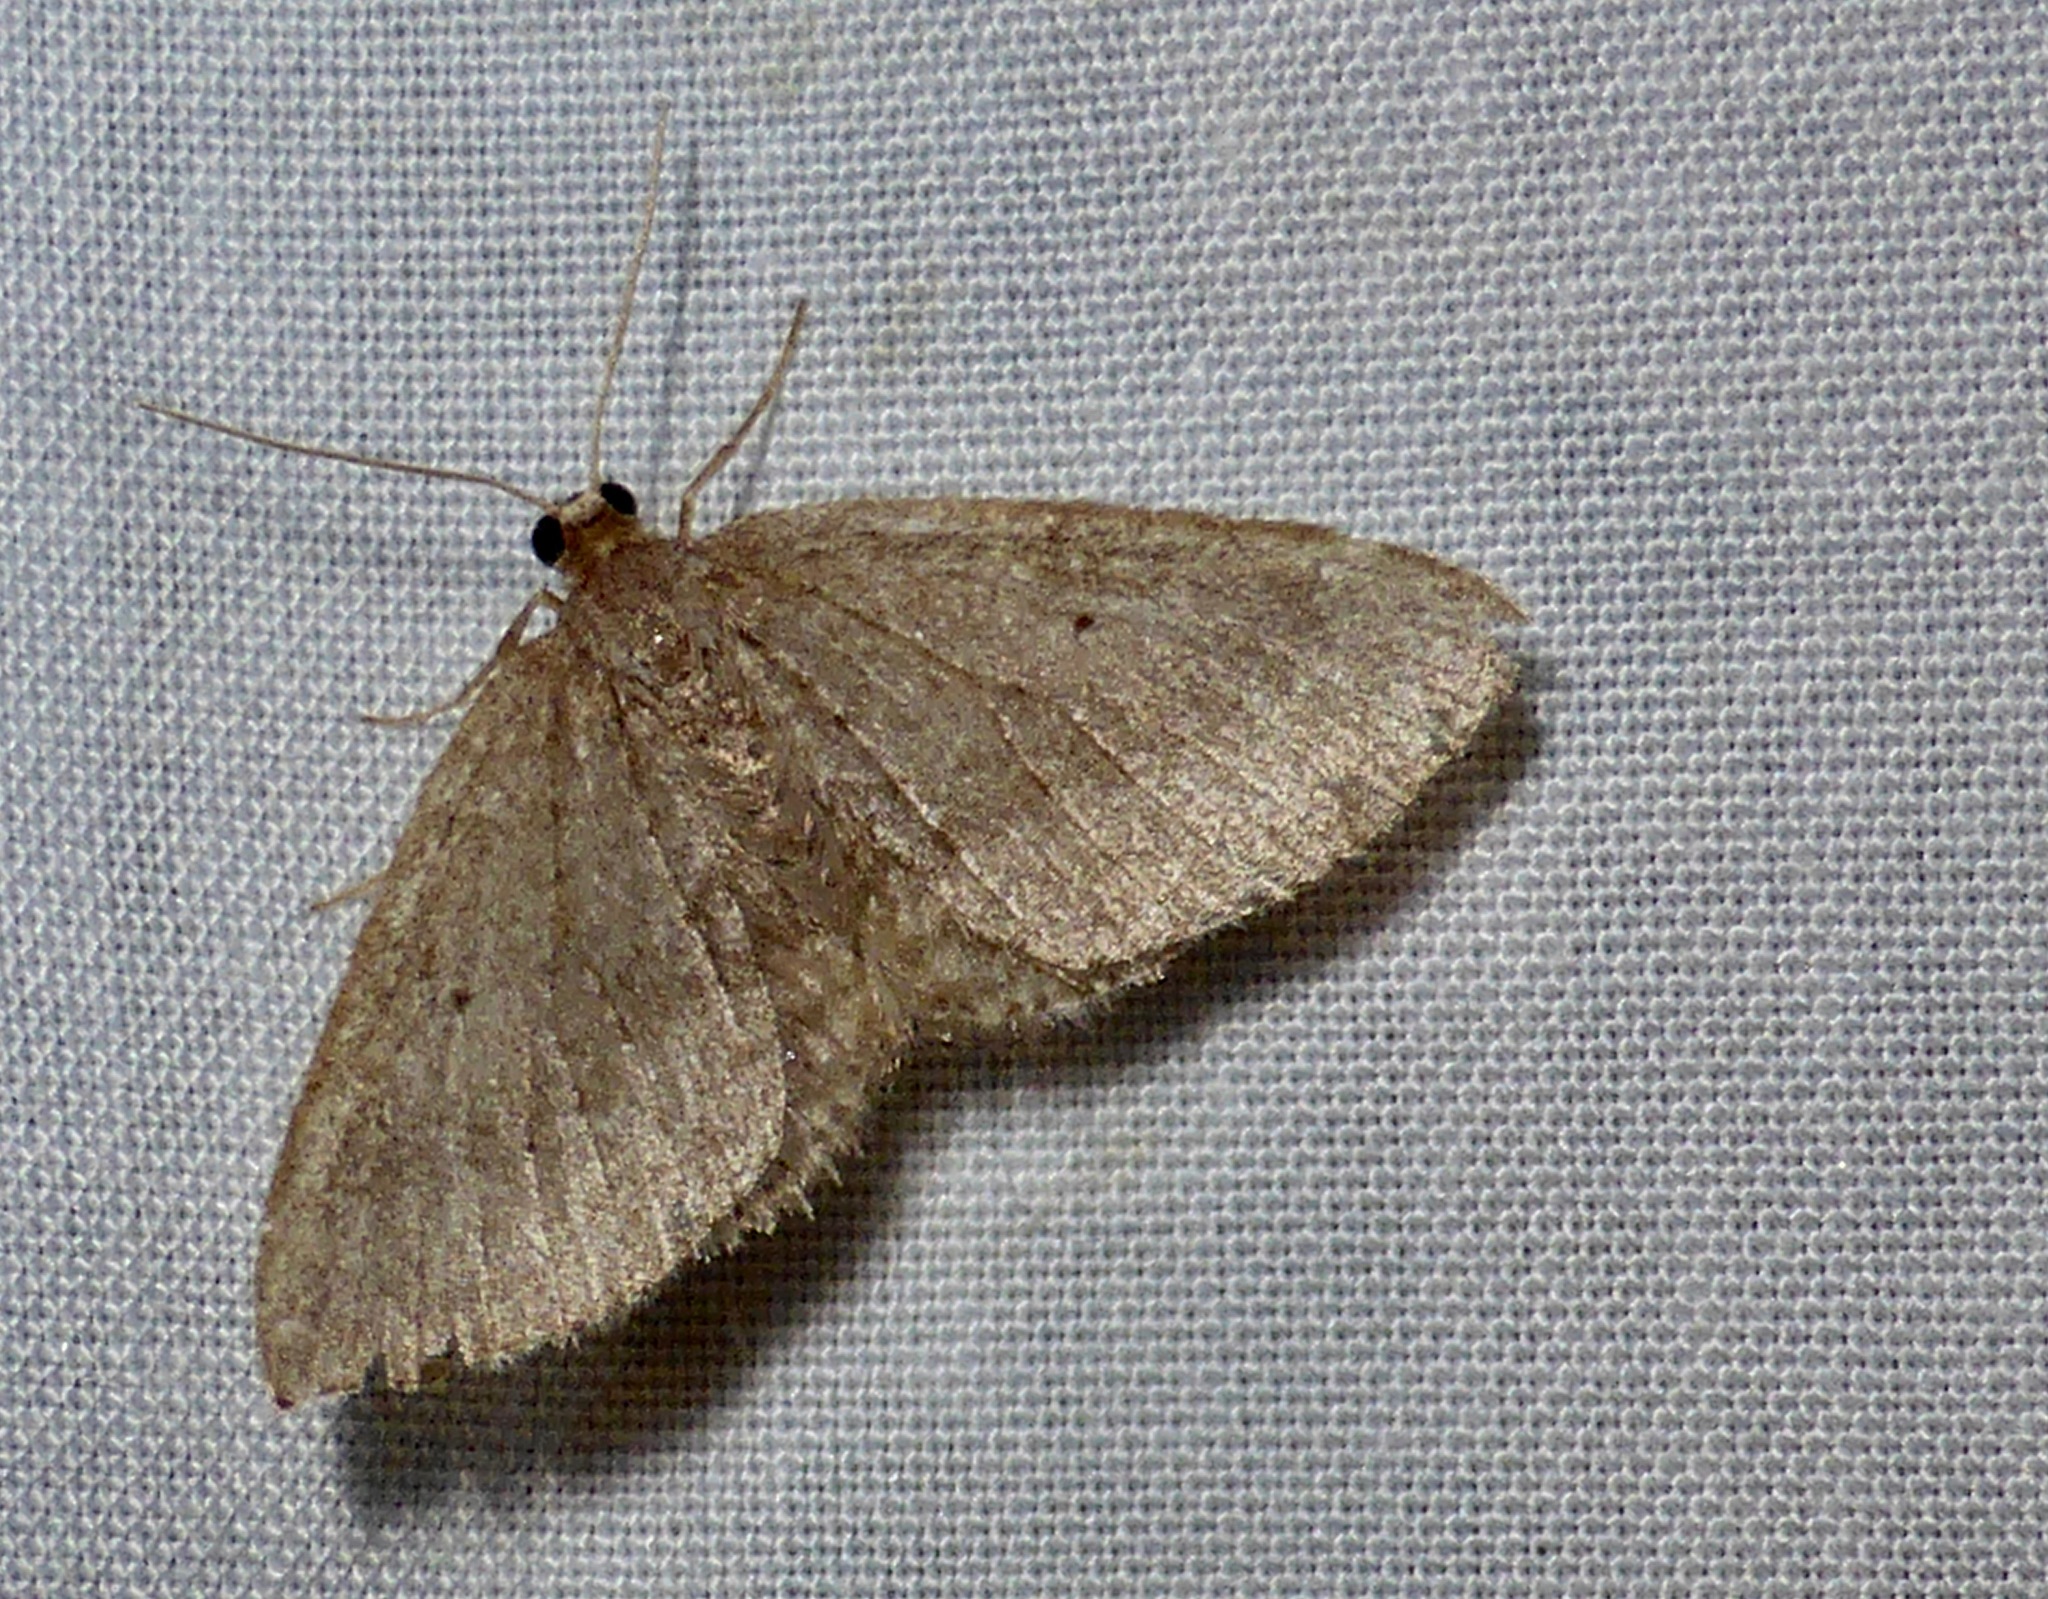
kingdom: Animalia
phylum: Arthropoda
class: Insecta
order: Lepidoptera
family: Geometridae
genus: Poecilasthena
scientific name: Poecilasthena schistaria
